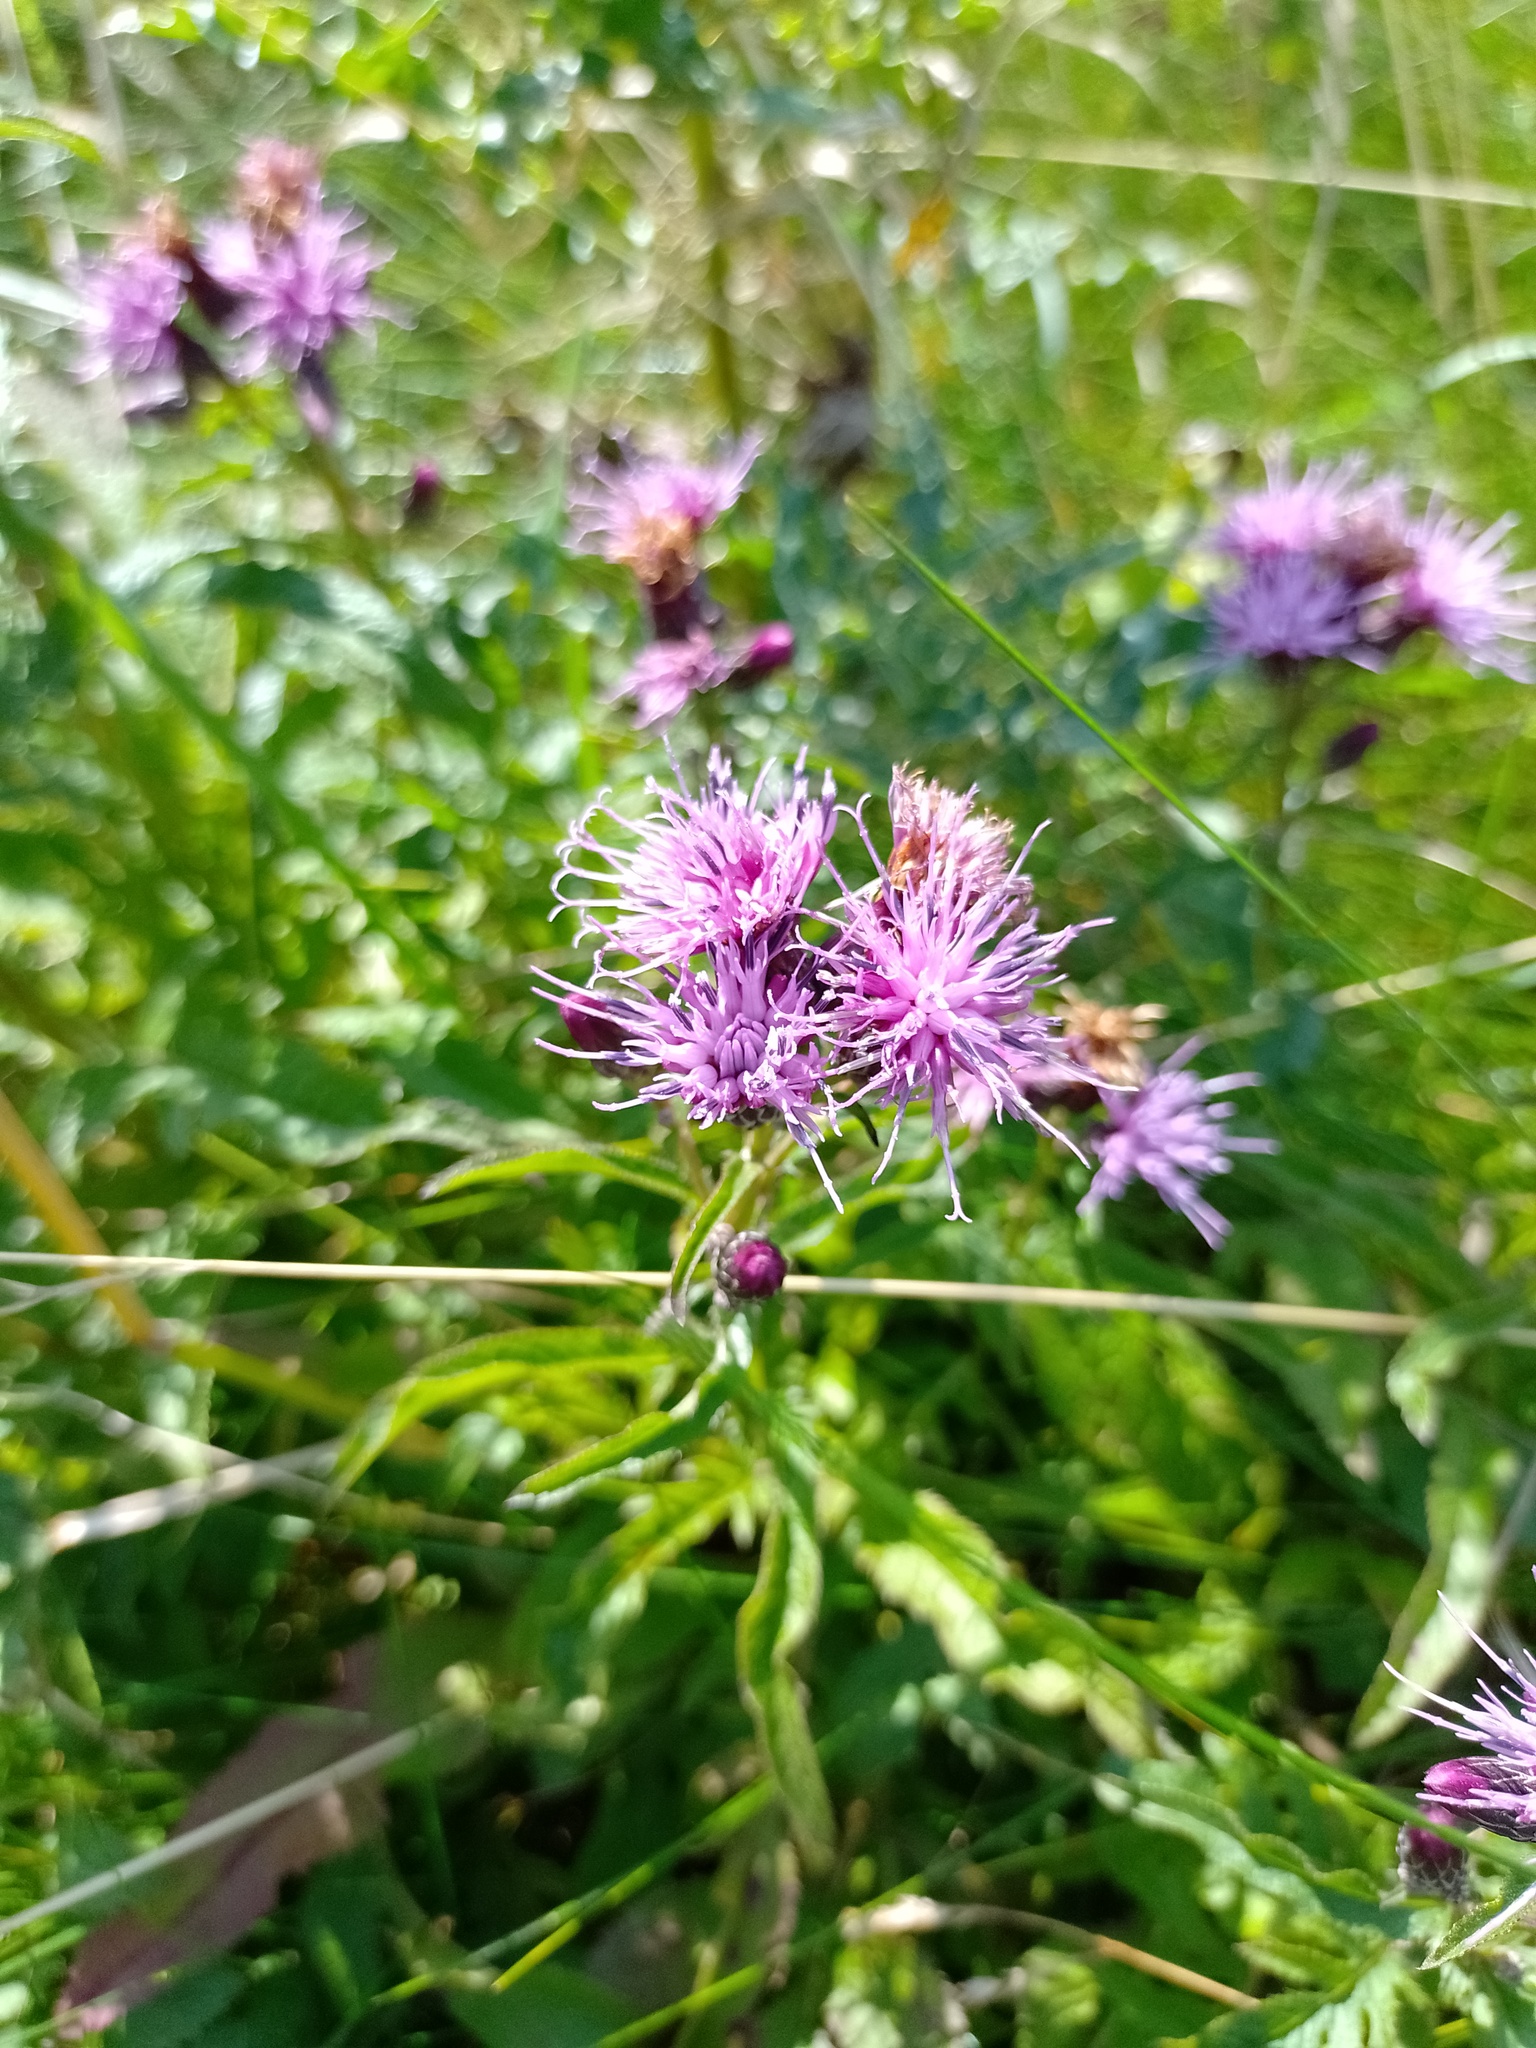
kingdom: Plantae
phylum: Tracheophyta
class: Magnoliopsida
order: Asterales
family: Asteraceae
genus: Serratula
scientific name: Serratula tinctoria
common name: Saw-wort
